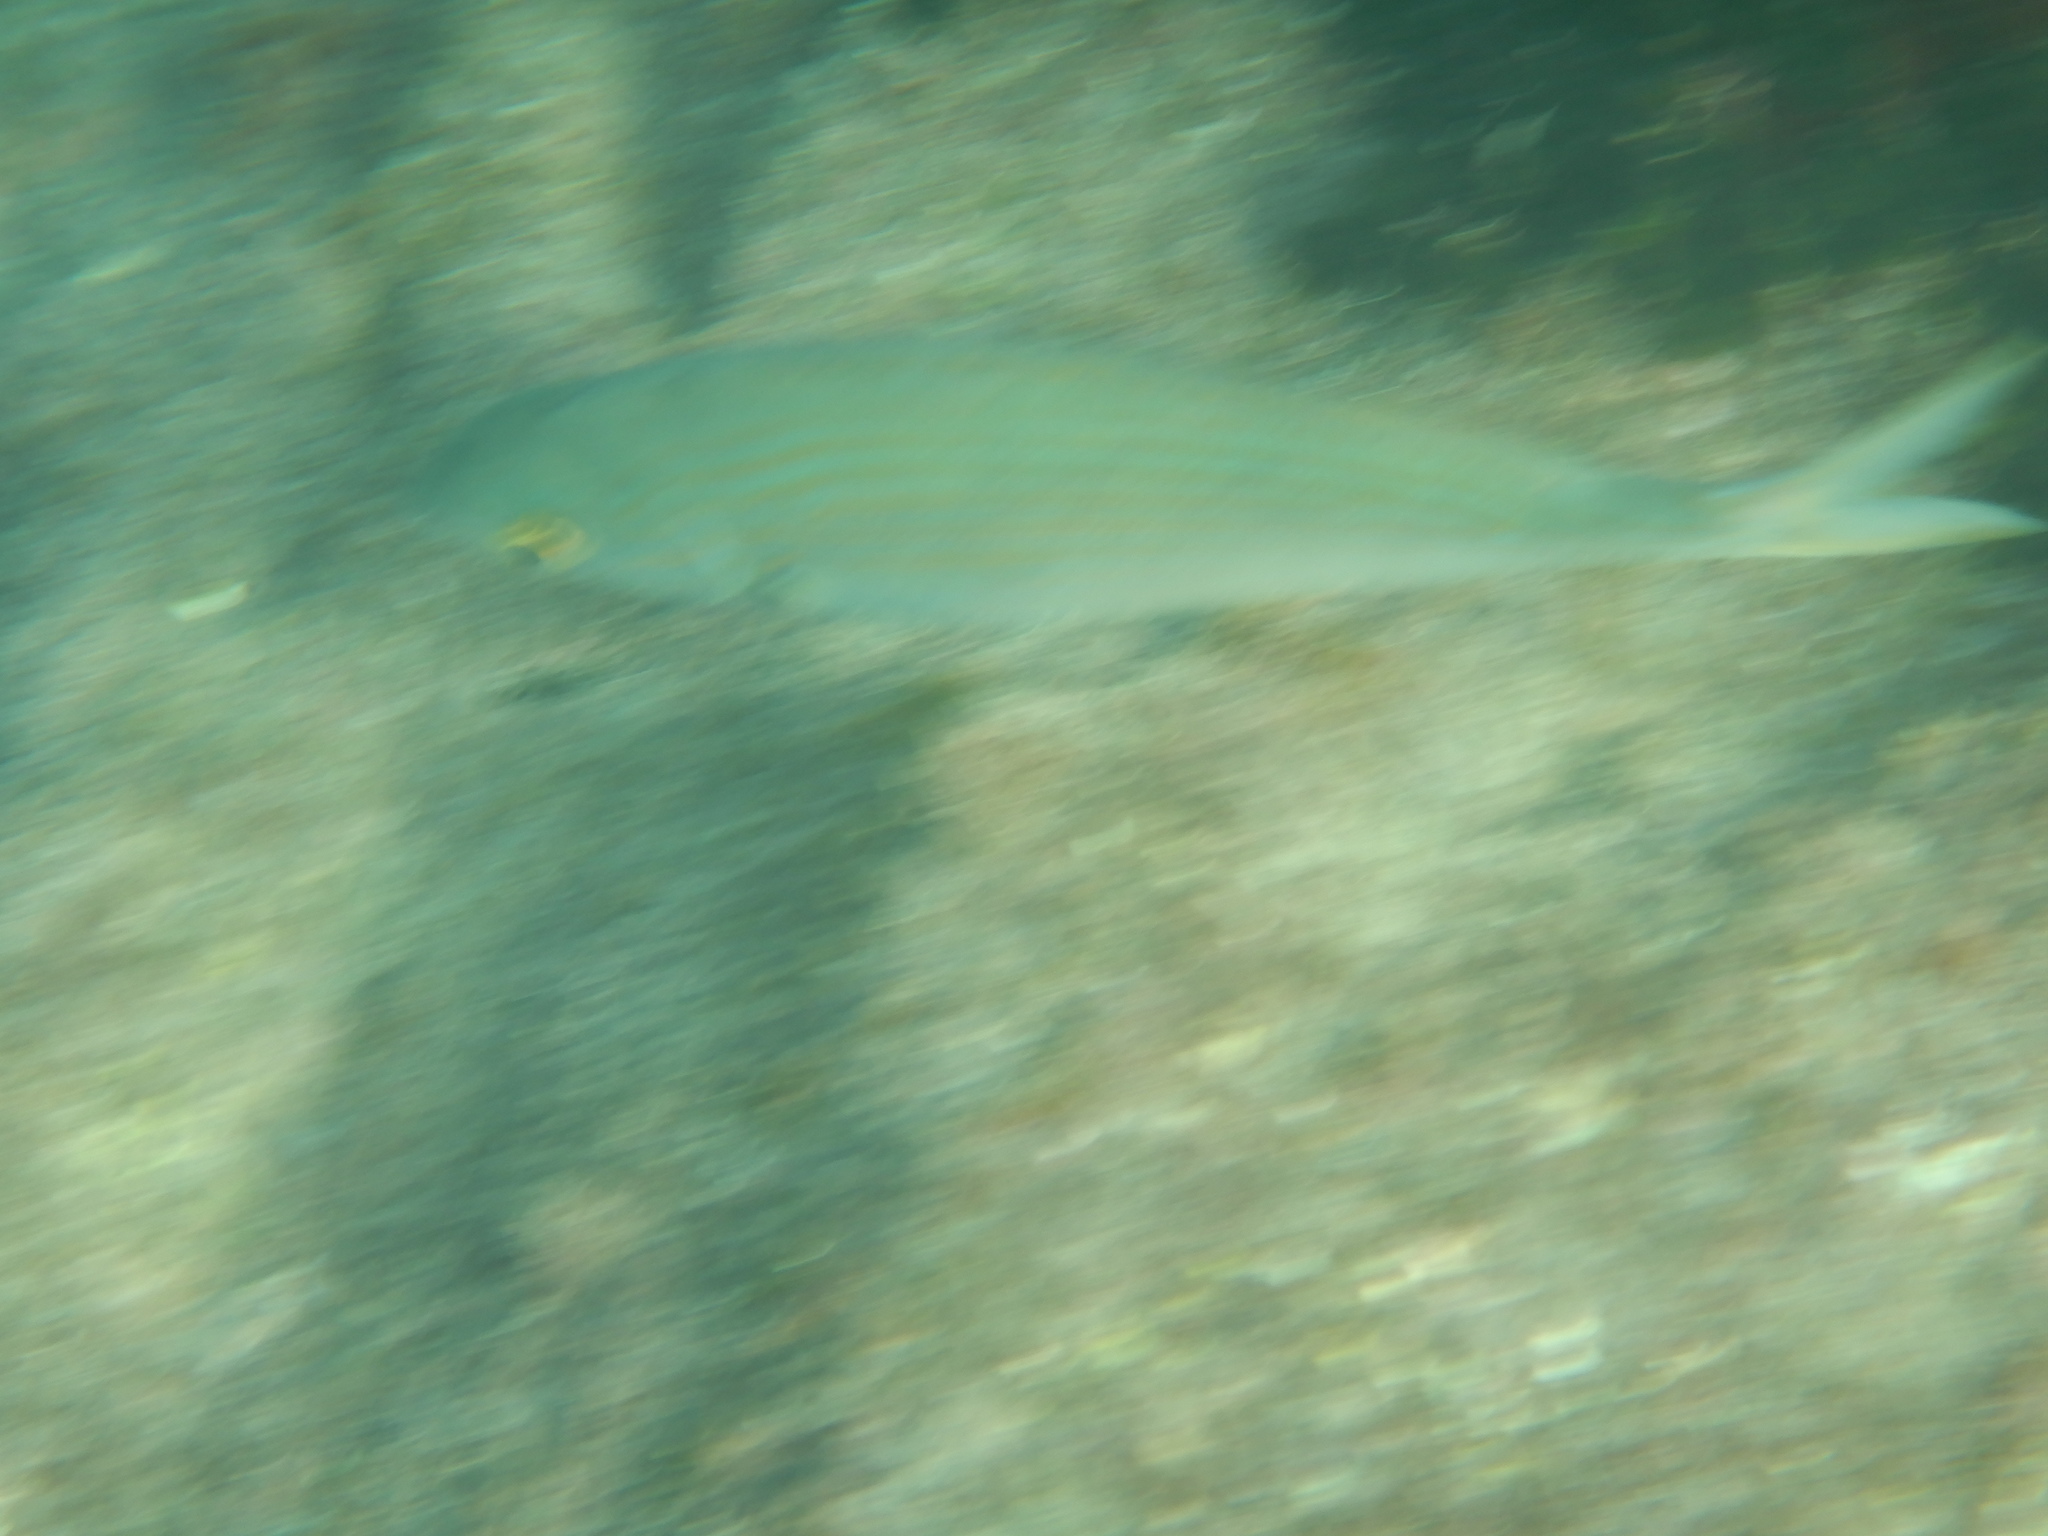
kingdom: Animalia
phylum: Chordata
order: Perciformes
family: Sparidae
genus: Sarpa
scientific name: Sarpa salpa
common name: Salema
